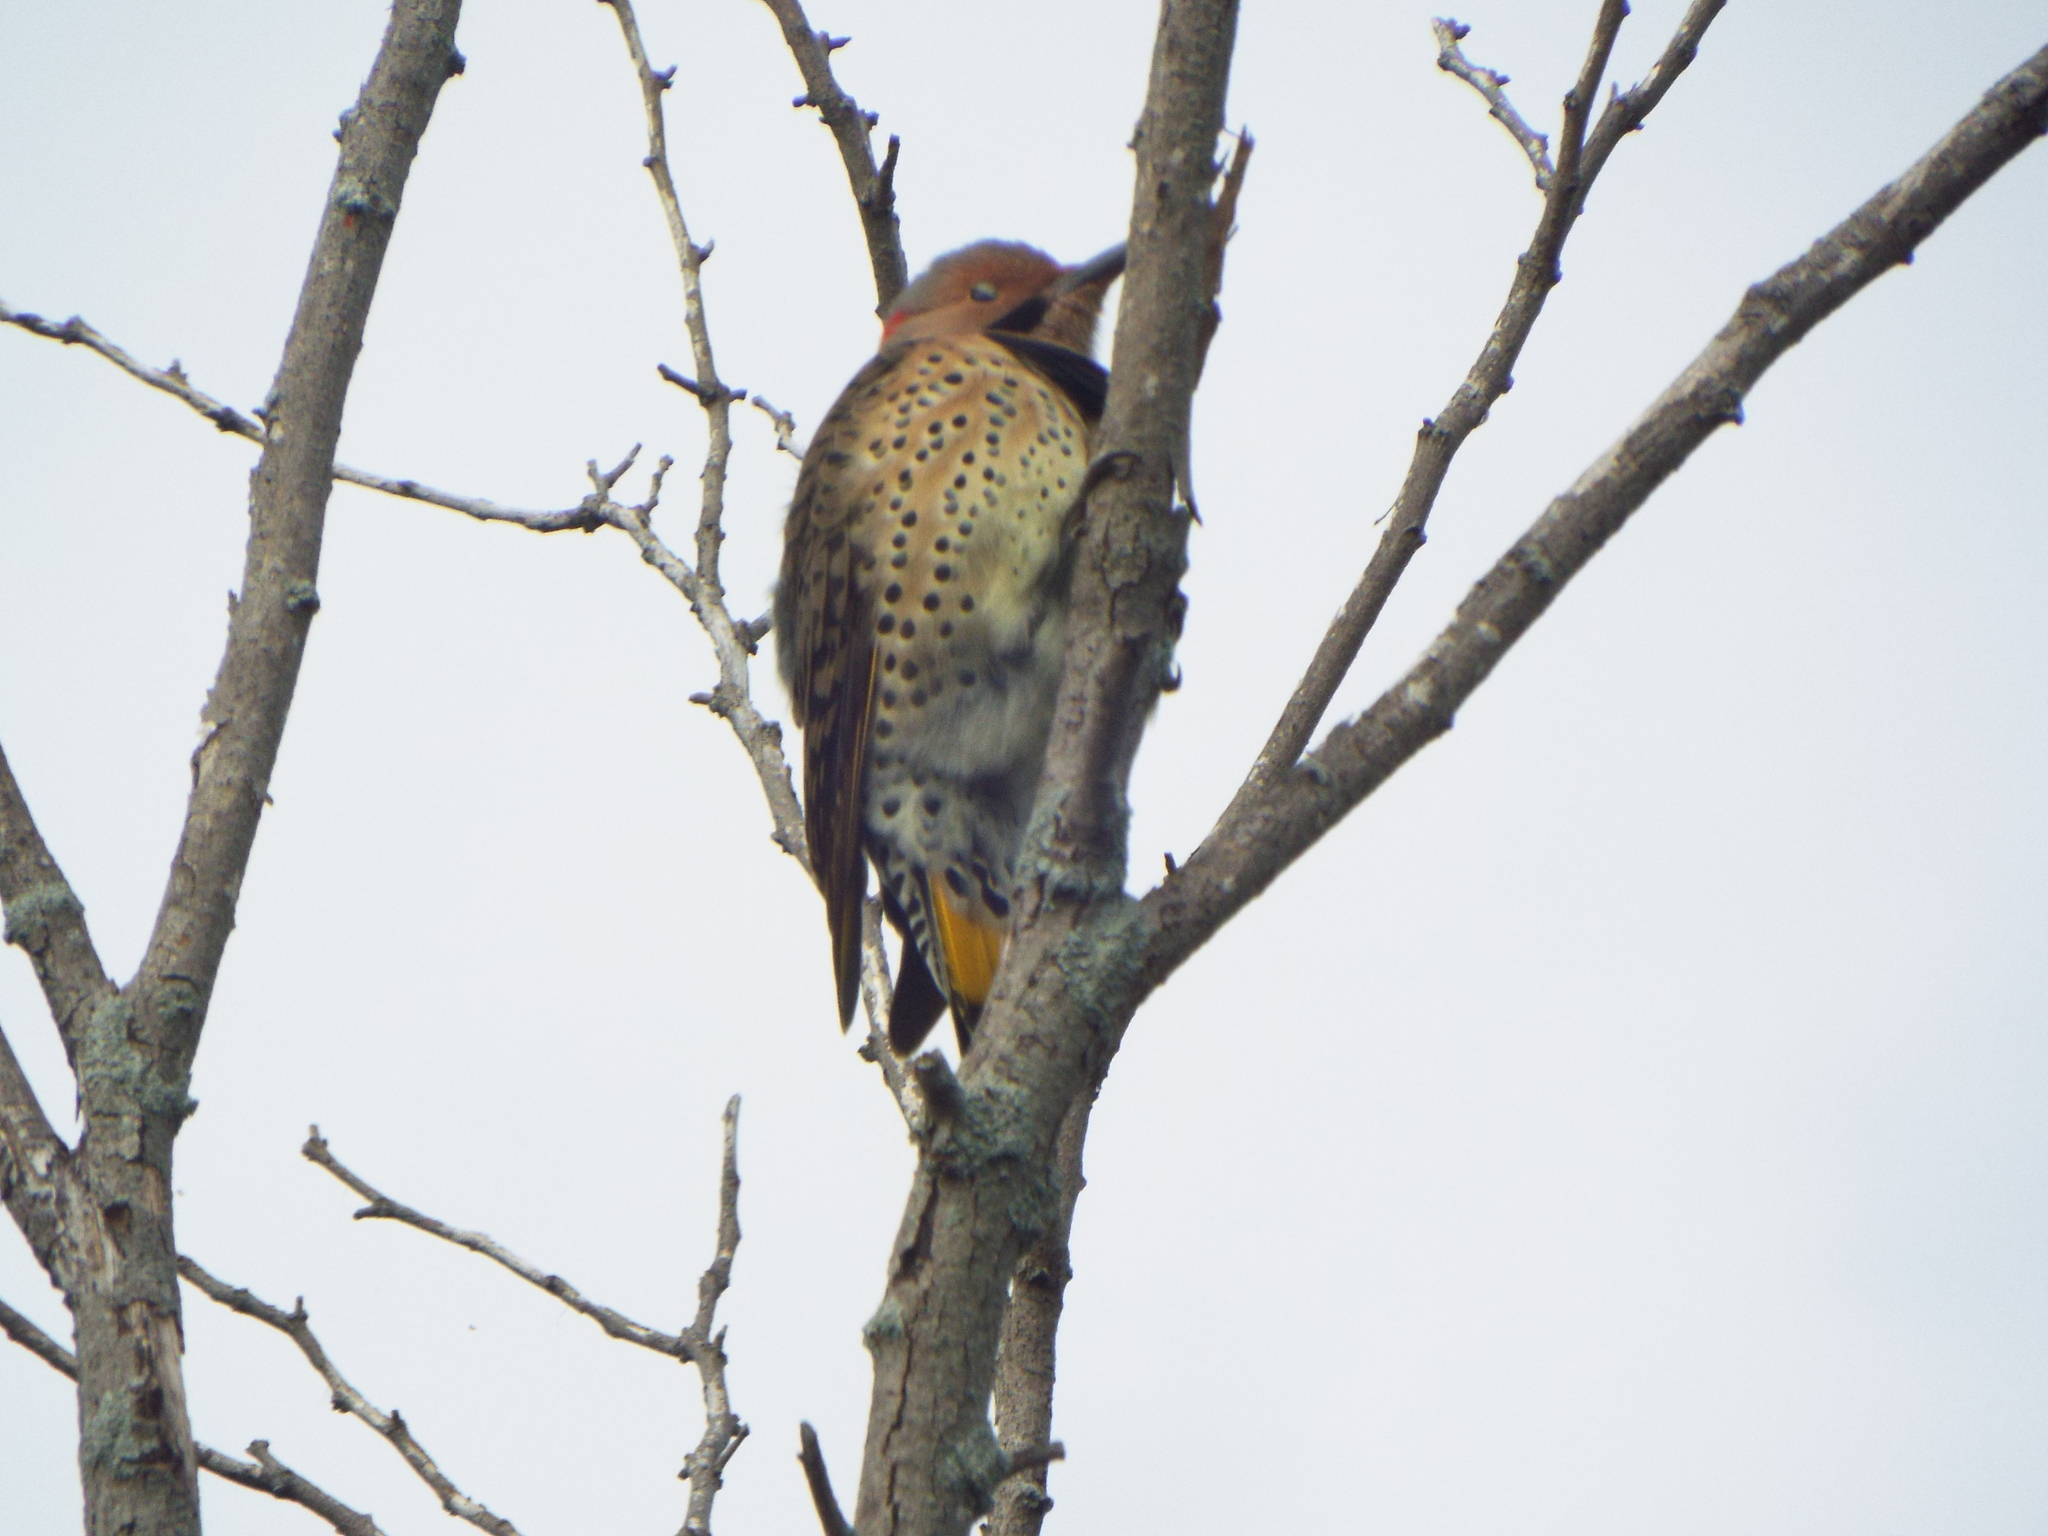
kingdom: Animalia
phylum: Chordata
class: Aves
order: Piciformes
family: Picidae
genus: Colaptes
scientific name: Colaptes auratus
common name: Northern flicker
